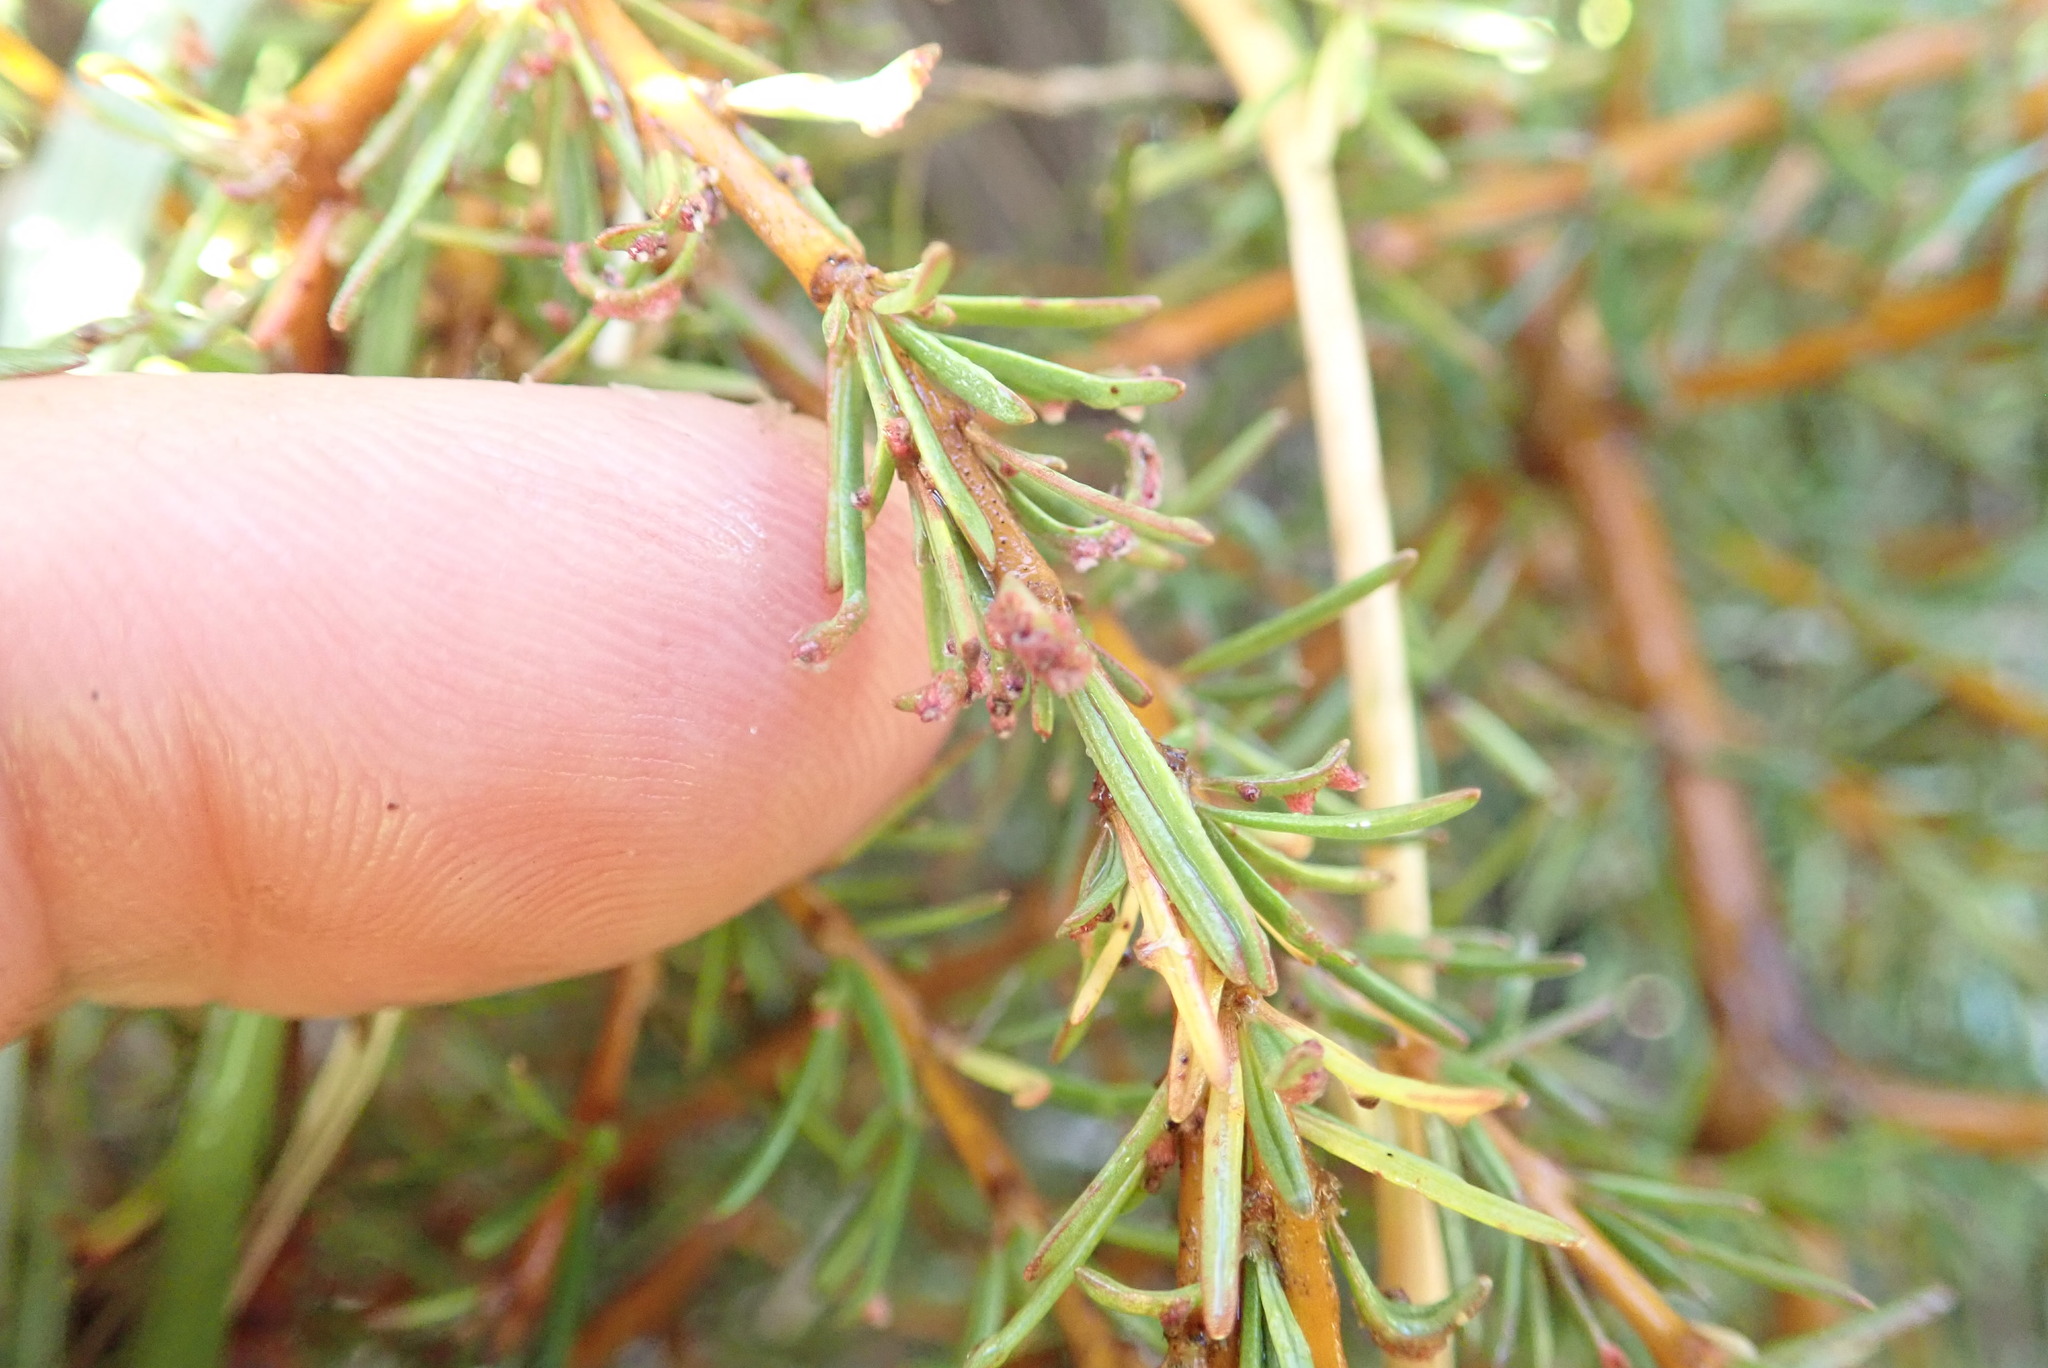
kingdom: Plantae
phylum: Tracheophyta
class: Magnoliopsida
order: Gentianales
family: Rubiaceae
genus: Coprosma
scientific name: Coprosma acerosa
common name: Sand coprosma
